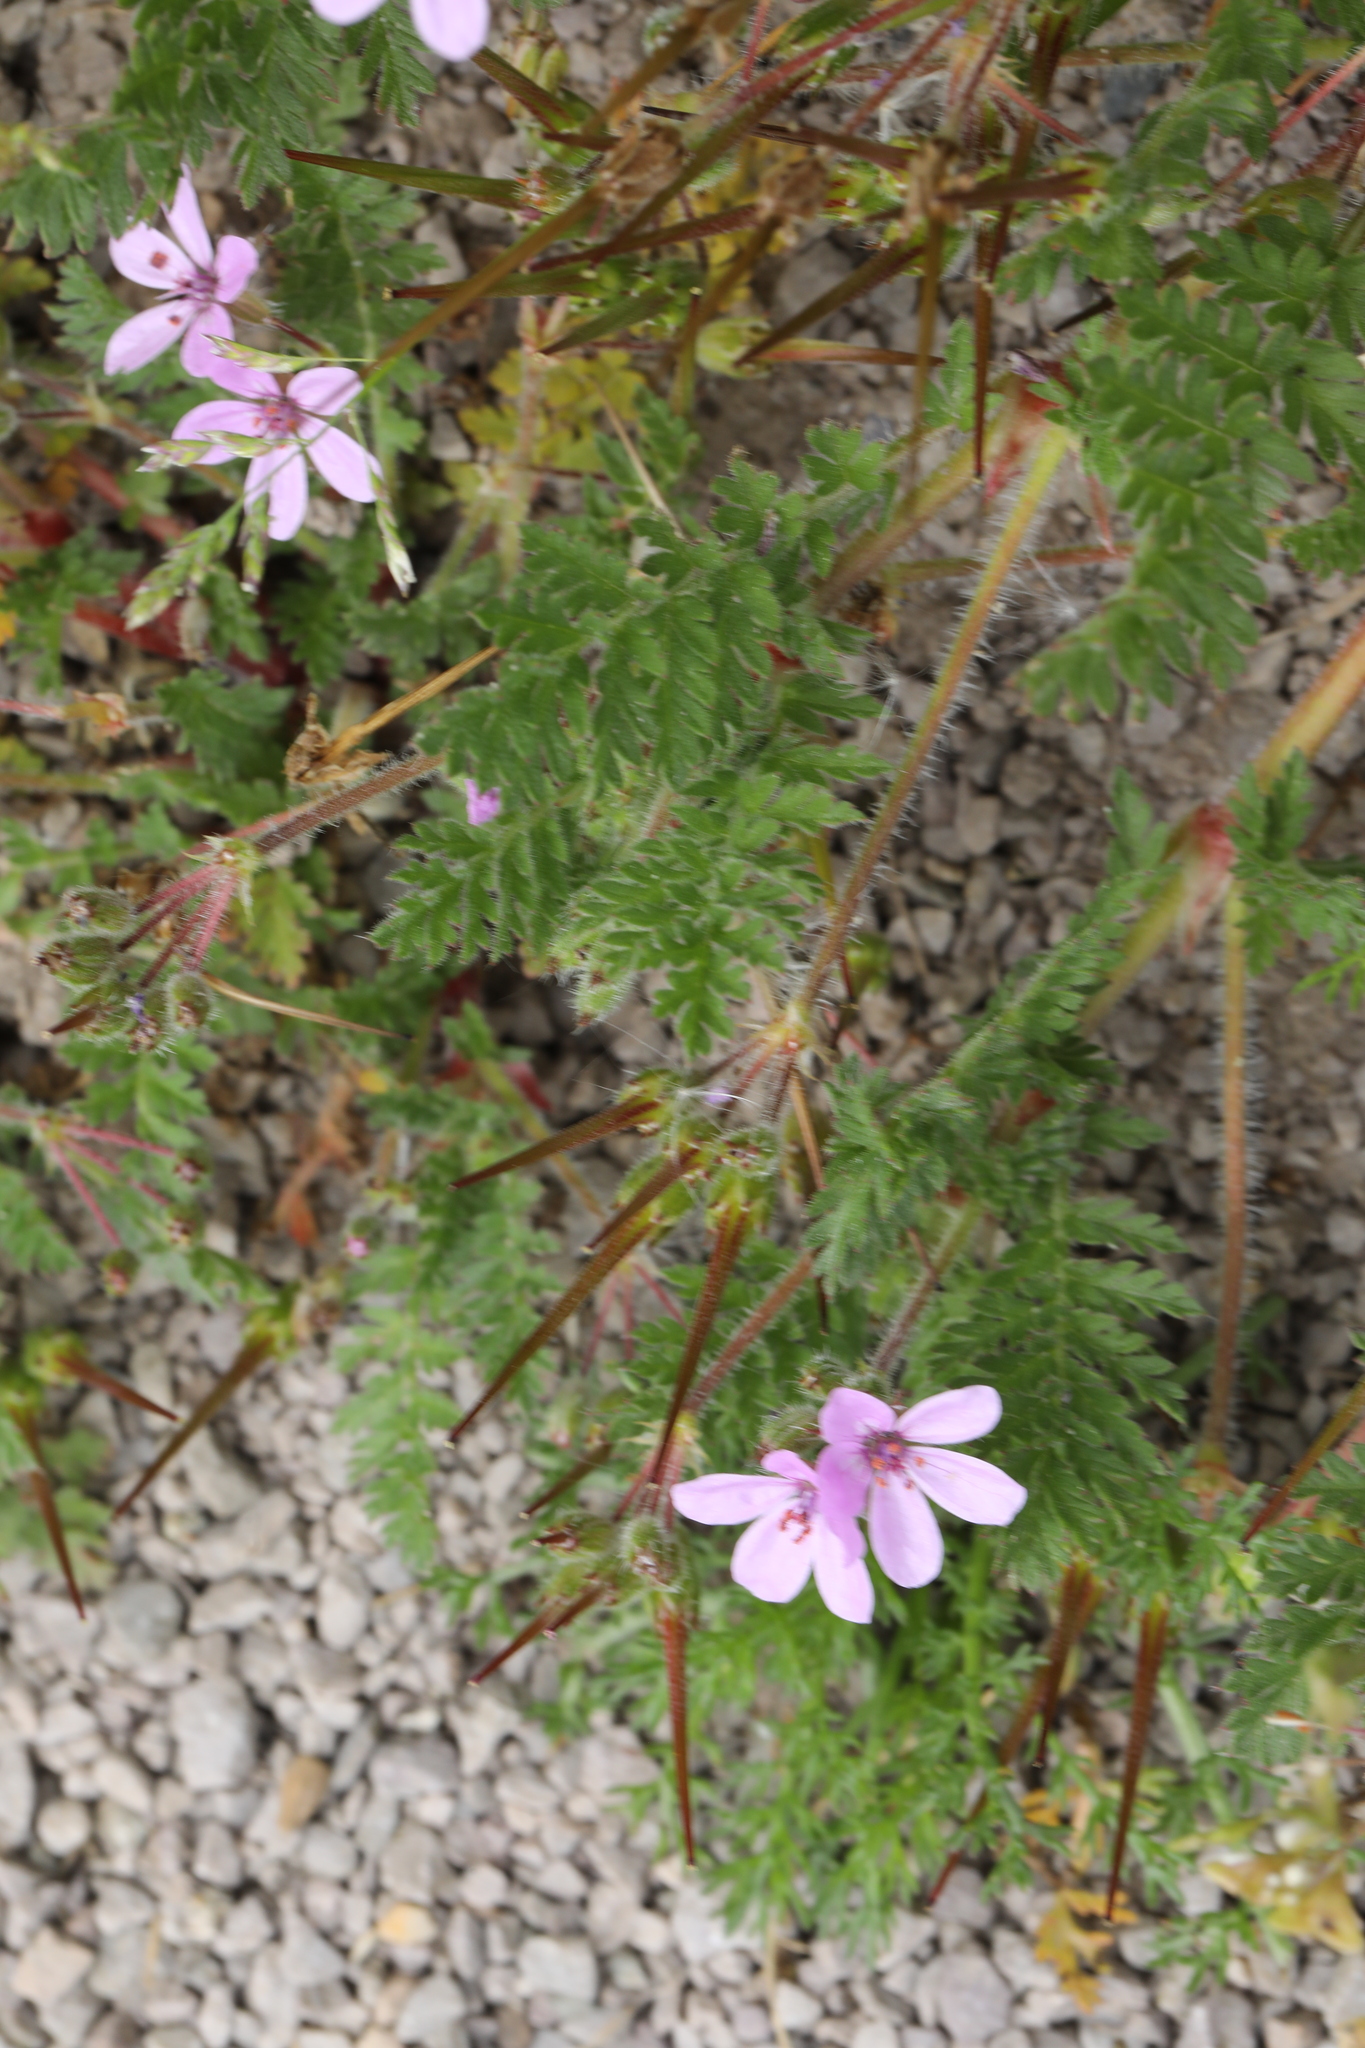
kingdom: Plantae
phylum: Tracheophyta
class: Magnoliopsida
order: Geraniales
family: Geraniaceae
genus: Erodium
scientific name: Erodium cicutarium
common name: Common stork's-bill
